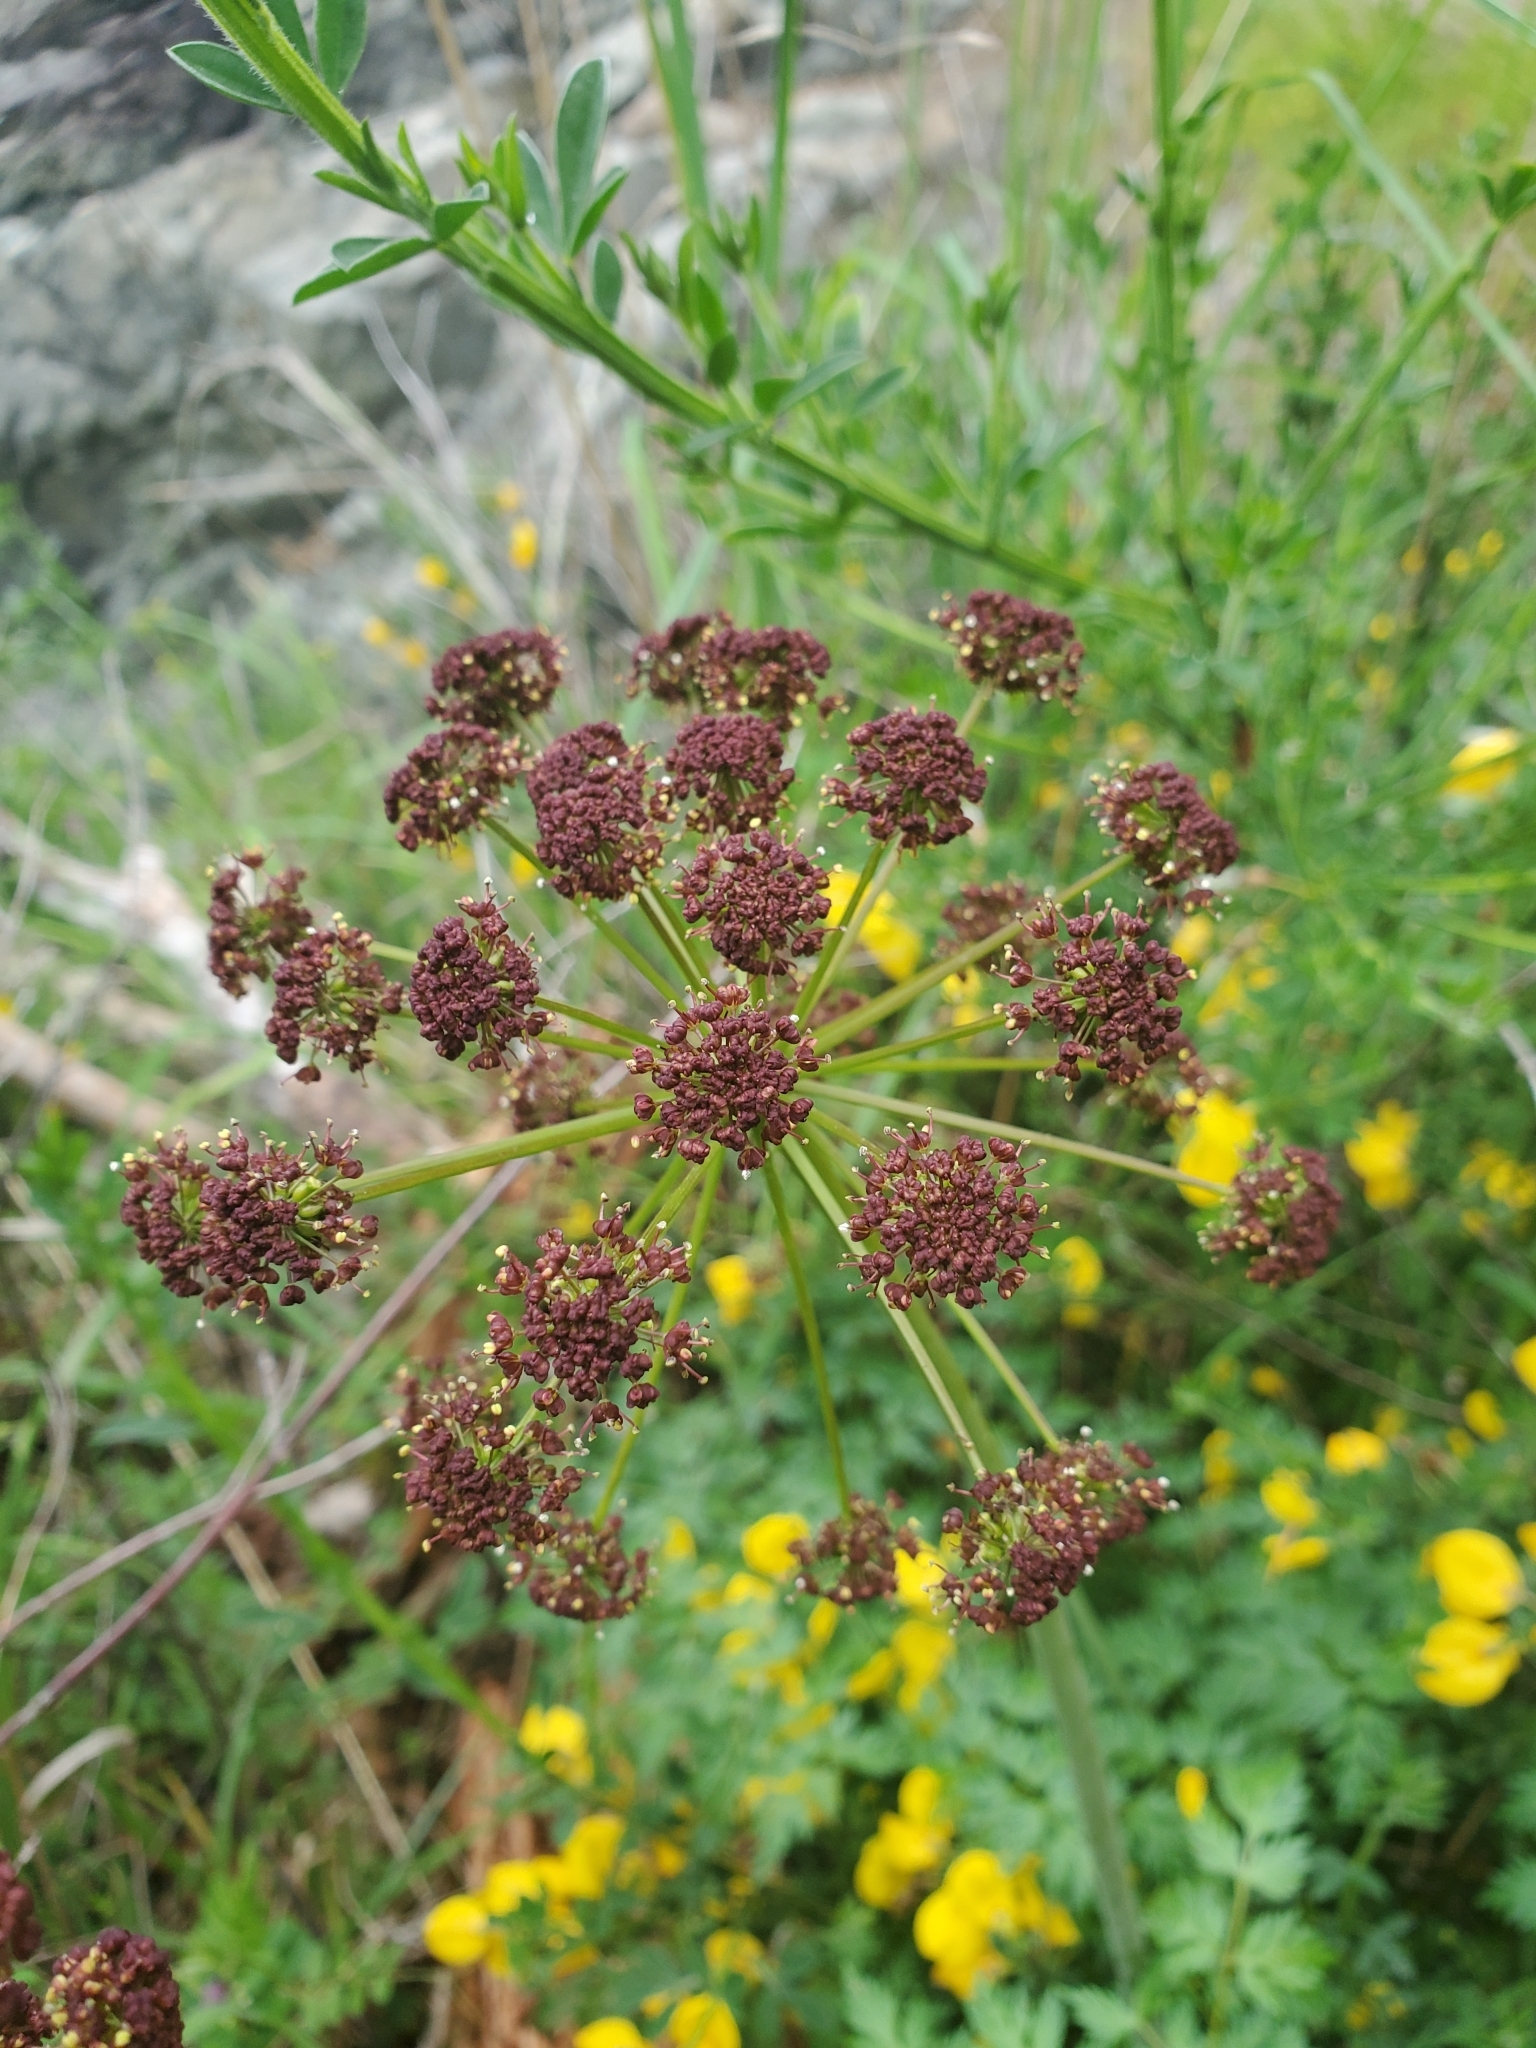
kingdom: Plantae
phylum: Tracheophyta
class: Magnoliopsida
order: Apiales
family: Apiaceae
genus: Lomatium
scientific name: Lomatium dissectum
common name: Lomatium
